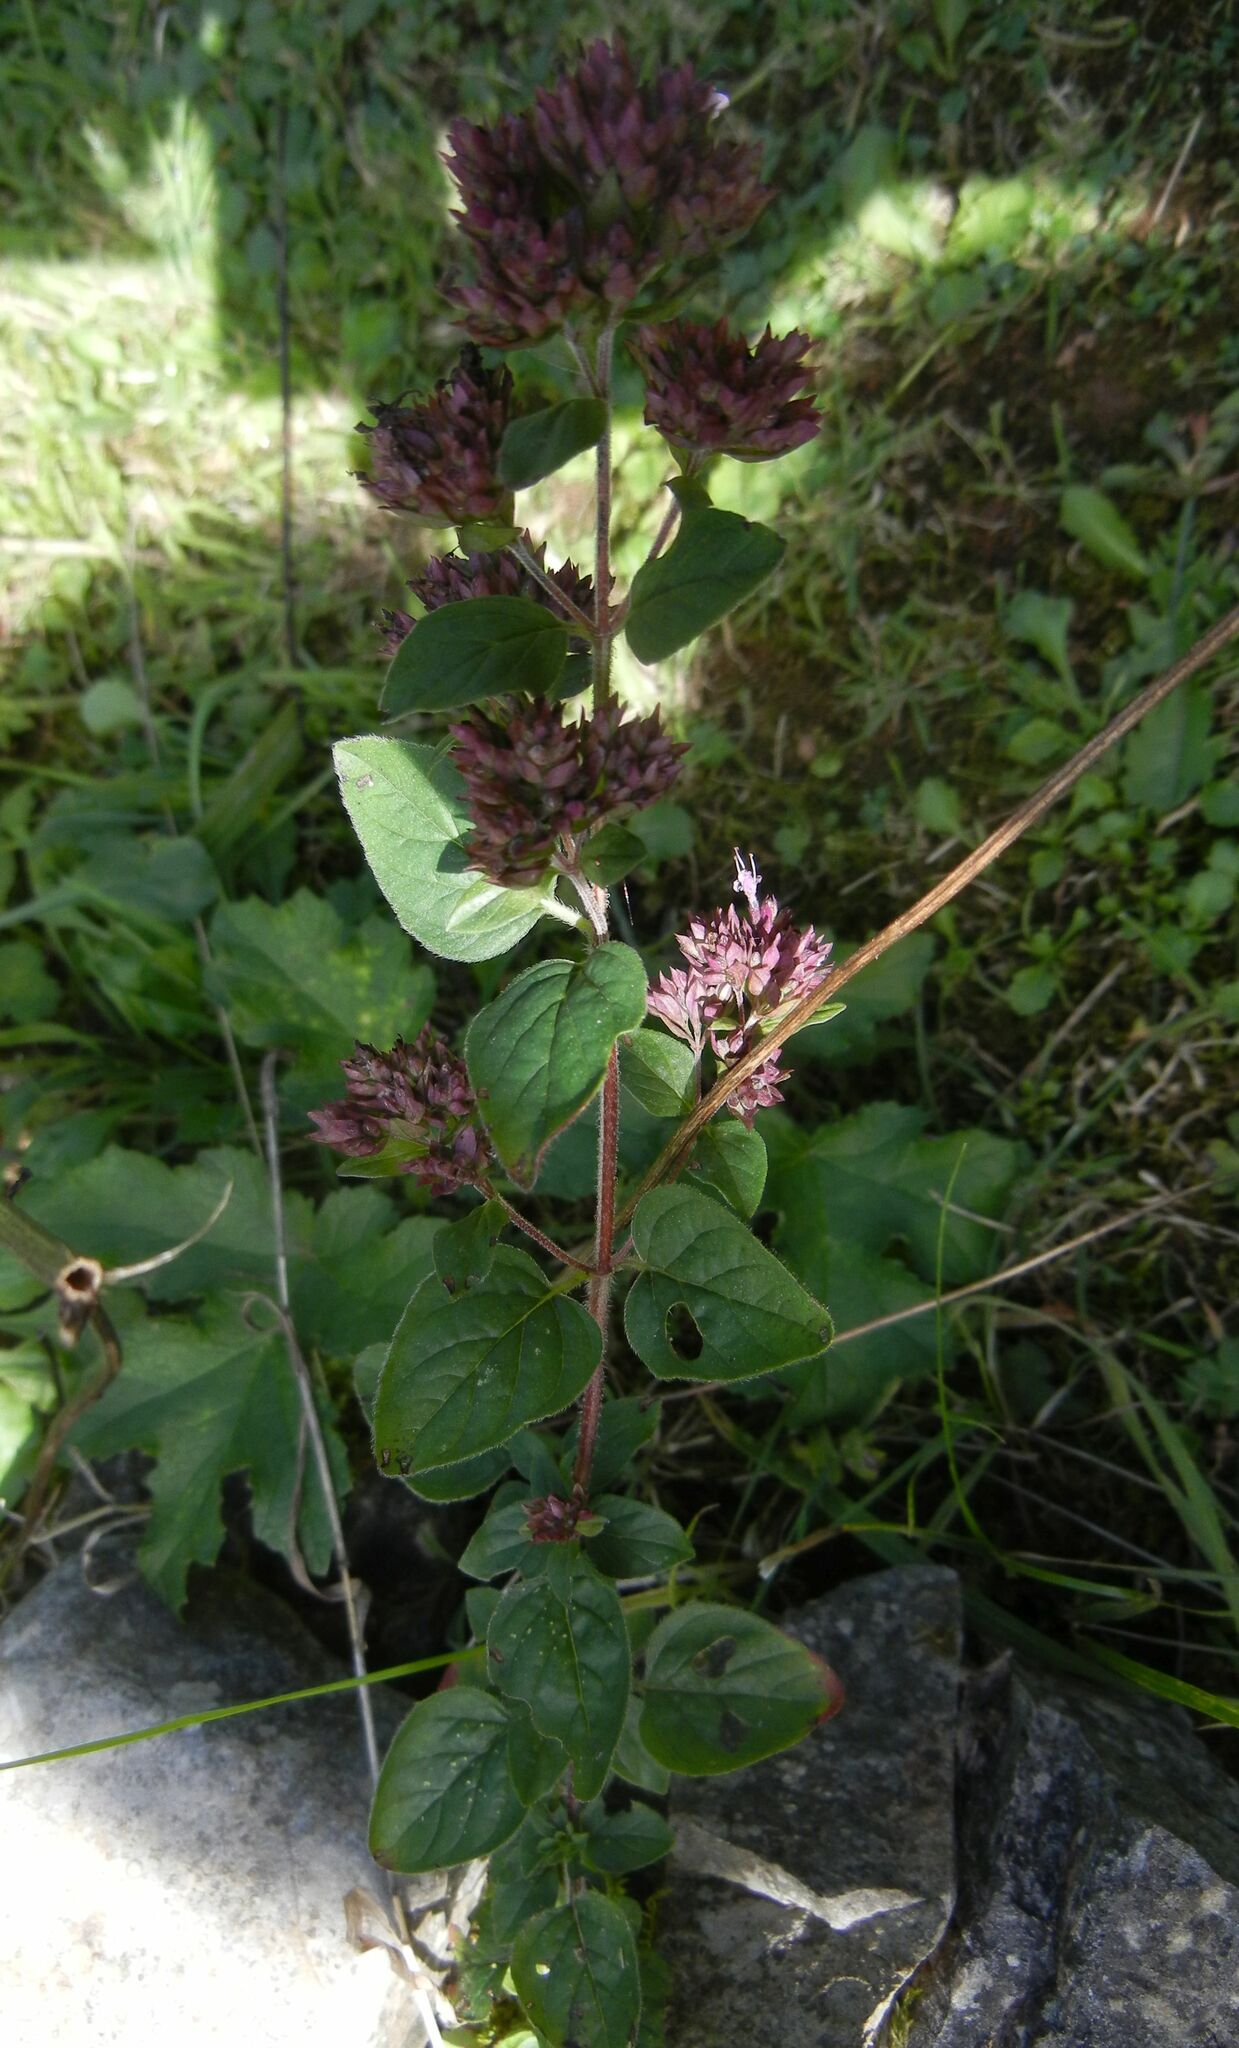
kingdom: Plantae
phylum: Tracheophyta
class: Magnoliopsida
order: Lamiales
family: Lamiaceae
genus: Origanum
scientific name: Origanum vulgare
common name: Wild marjoram
